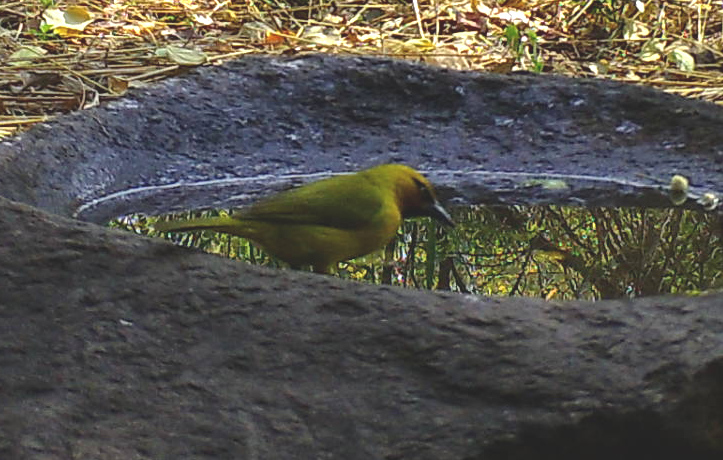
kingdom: Animalia
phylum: Chordata
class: Aves
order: Passeriformes
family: Ploceidae
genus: Ploceus
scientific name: Ploceus ocularis
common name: Spectacled weaver
